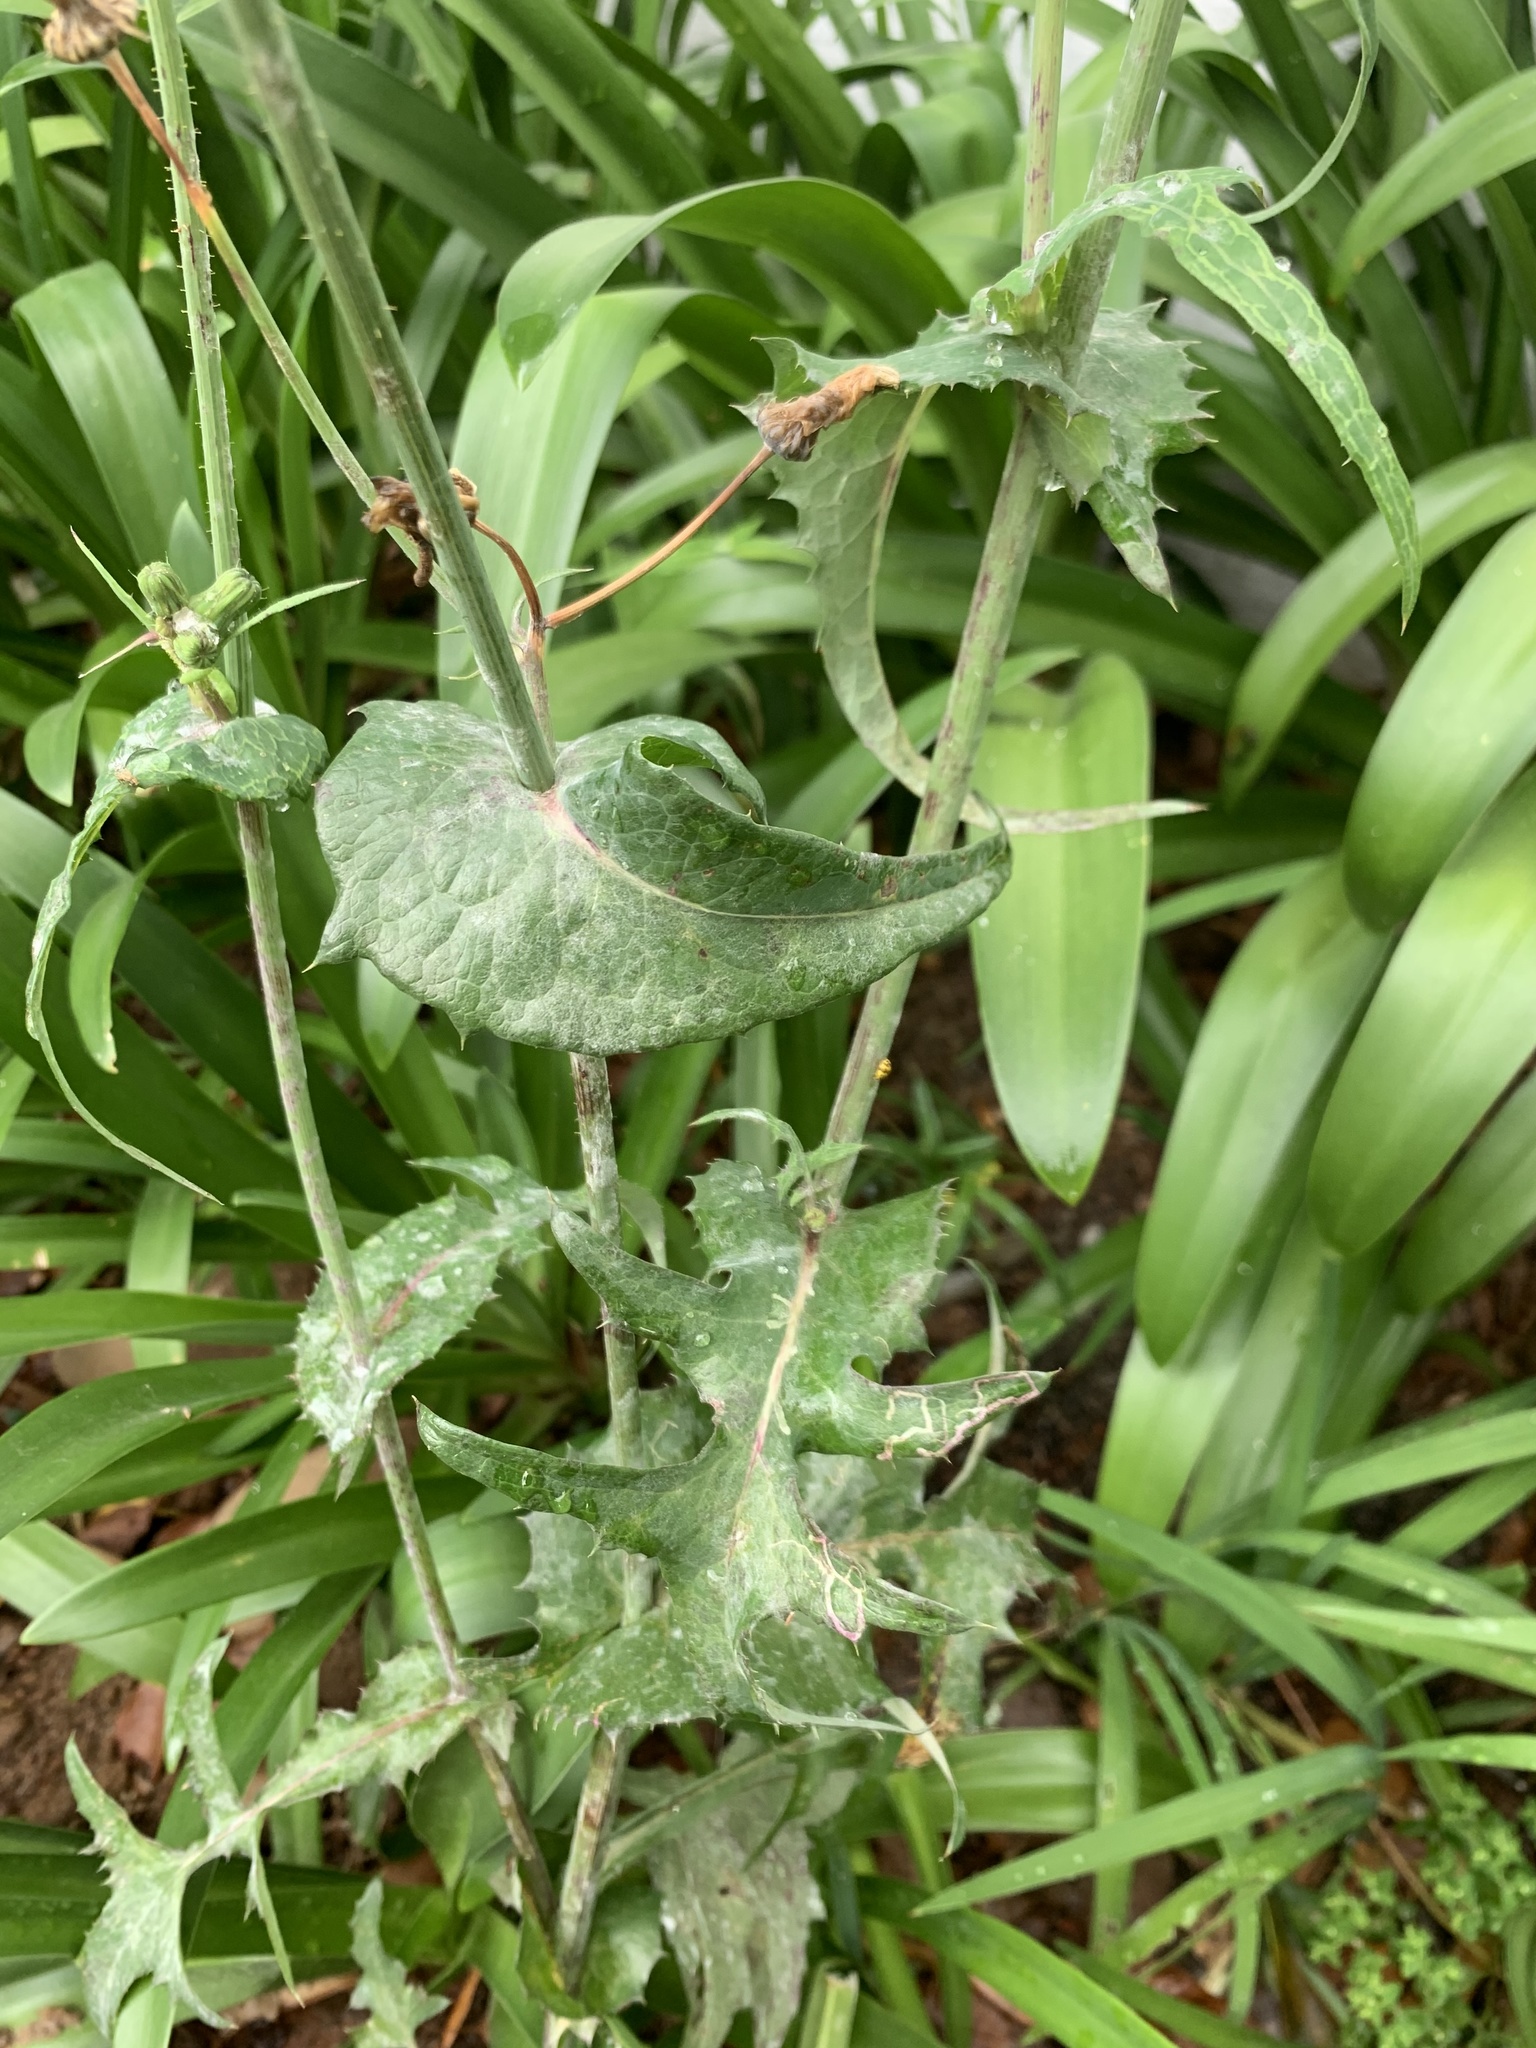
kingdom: Plantae
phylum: Tracheophyta
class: Magnoliopsida
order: Asterales
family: Asteraceae
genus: Sonchus
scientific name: Sonchus oleraceus
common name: Common sowthistle
